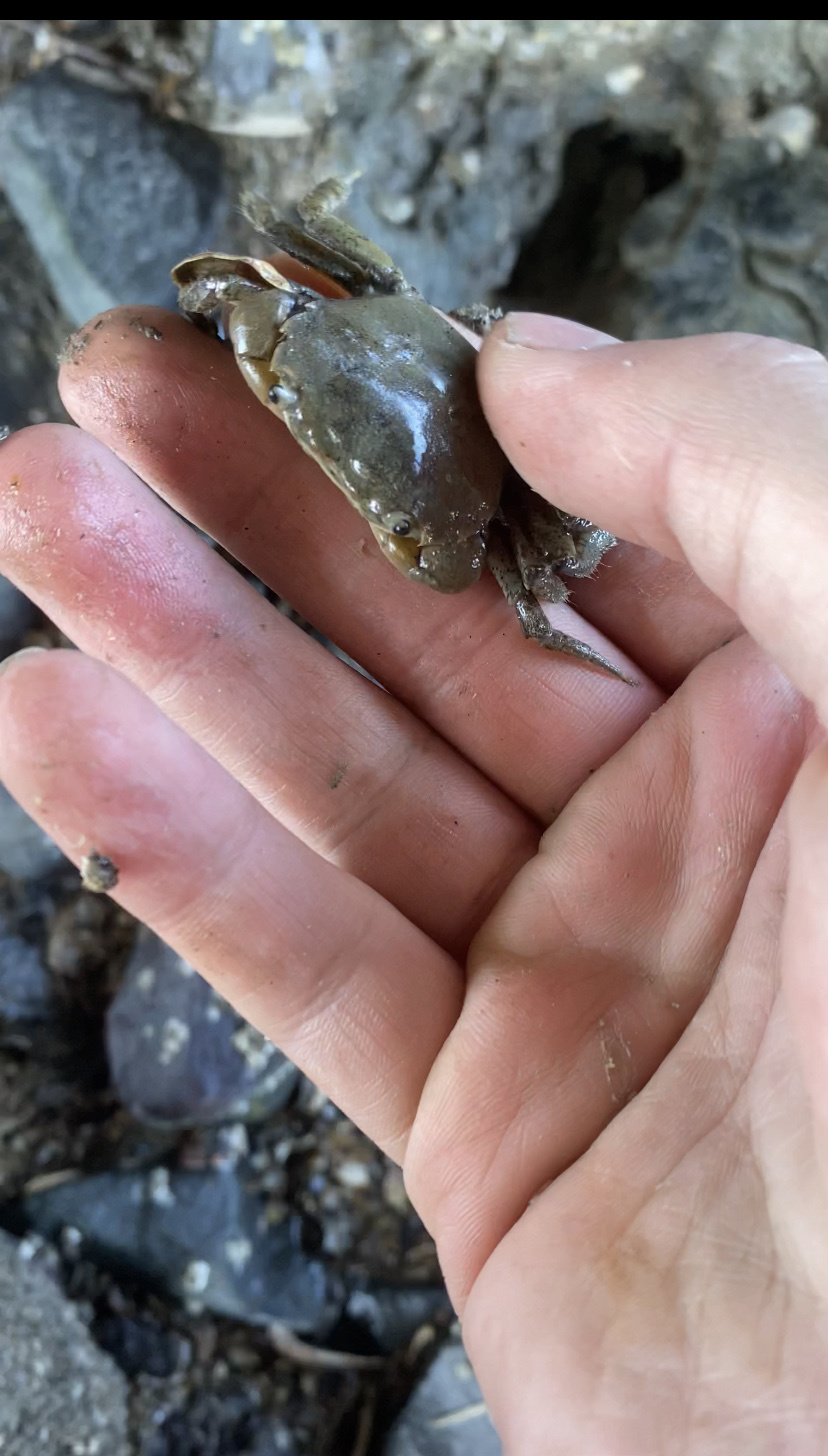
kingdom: Animalia
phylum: Arthropoda
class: Malacostraca
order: Decapoda
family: Varunidae
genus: Hemigrapsus
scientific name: Hemigrapsus oregonensis
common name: Yellow shore crab
